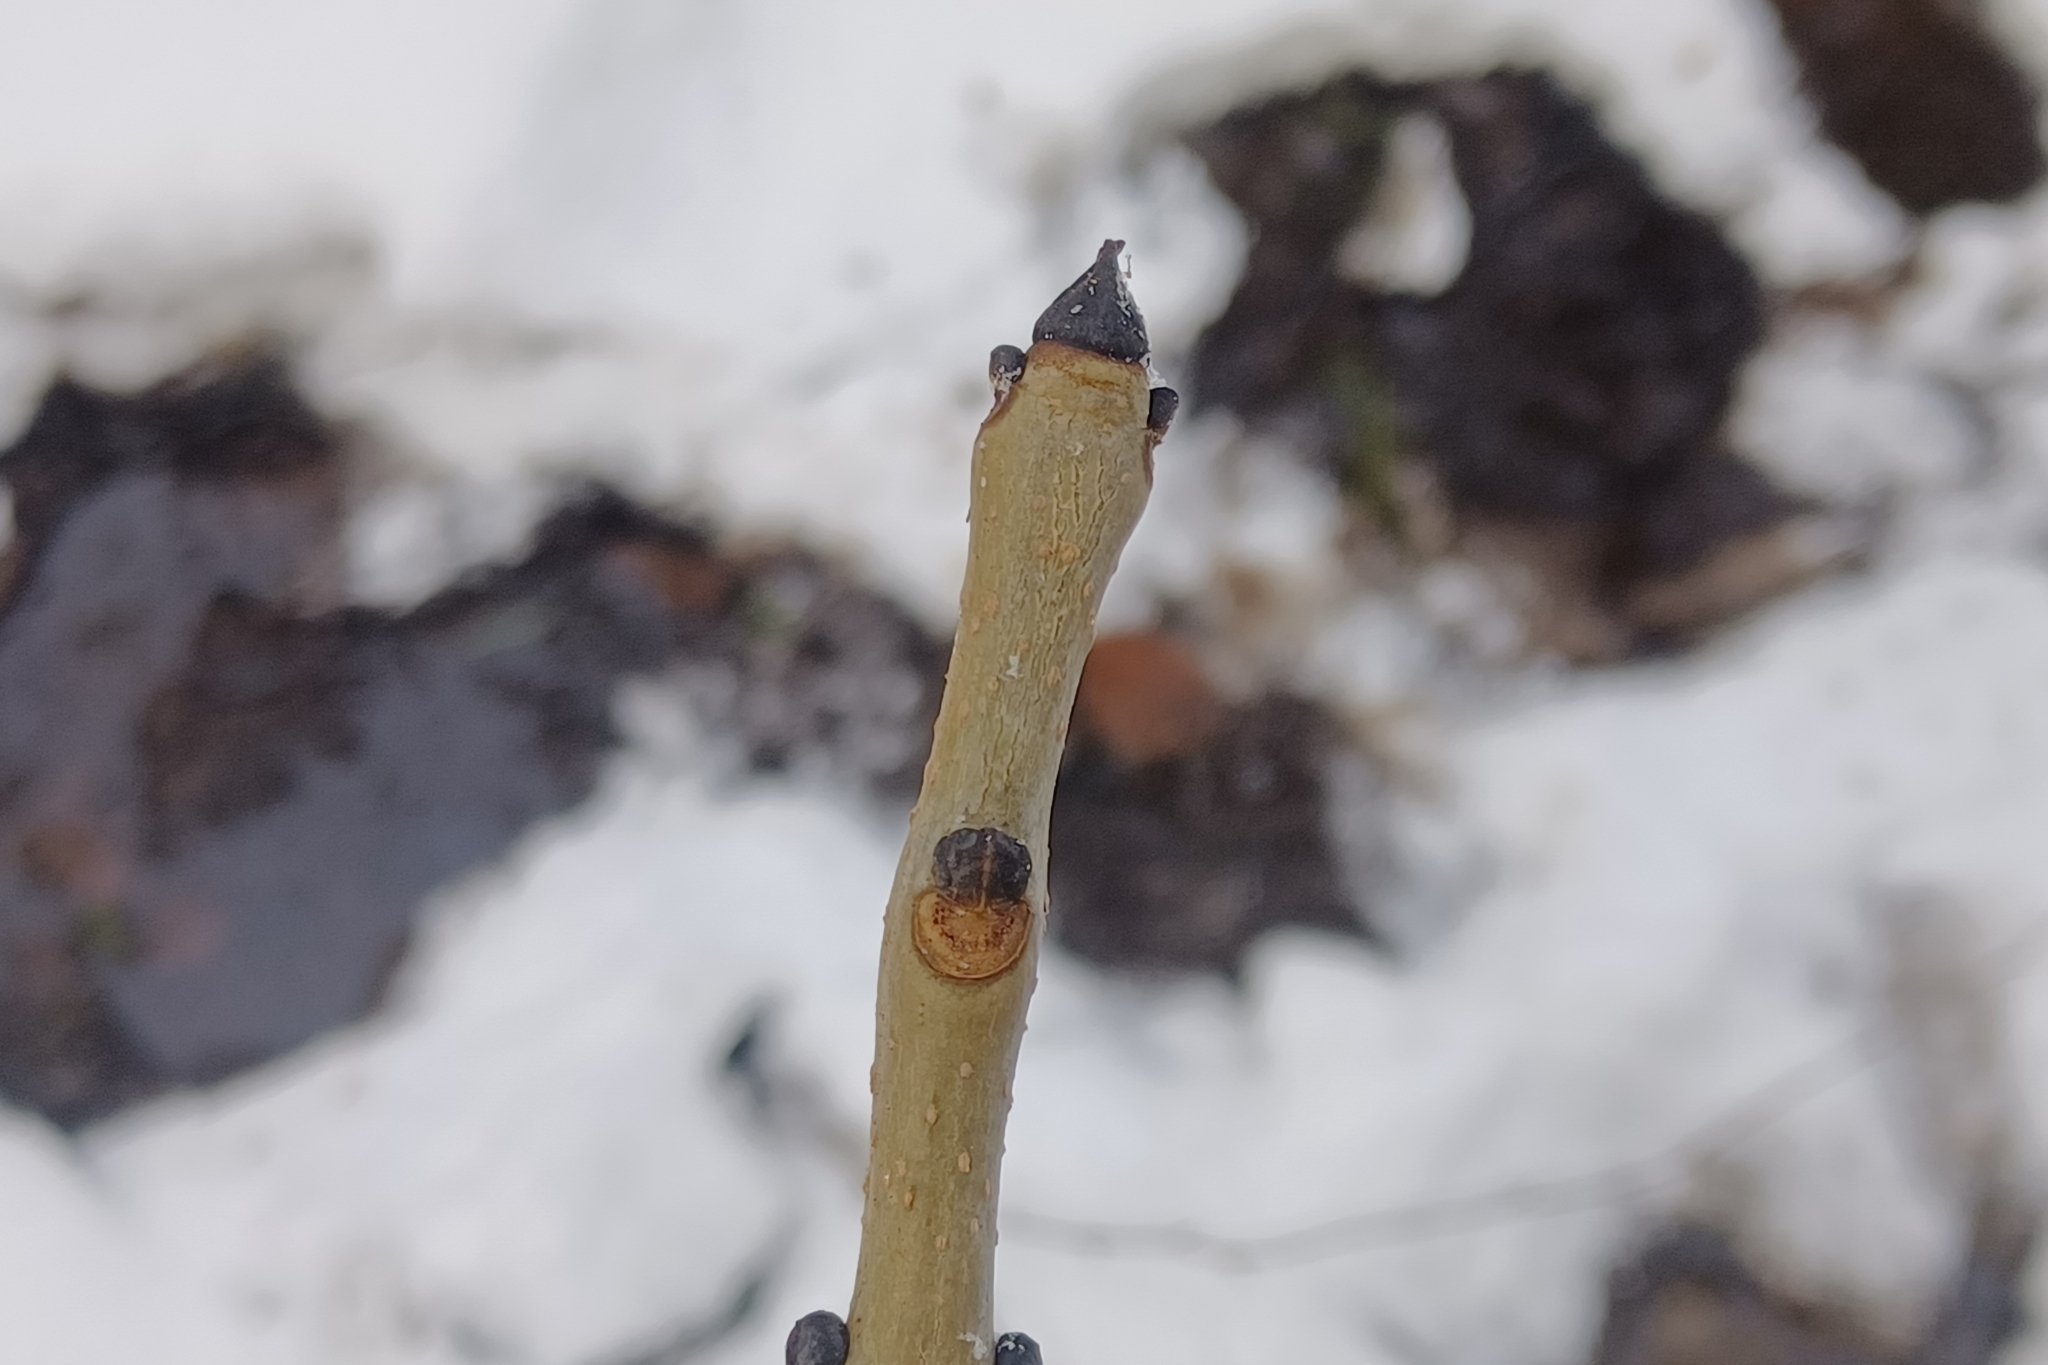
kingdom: Plantae
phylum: Tracheophyta
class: Magnoliopsida
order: Lamiales
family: Oleaceae
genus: Fraxinus
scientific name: Fraxinus nigra
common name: Black ash
